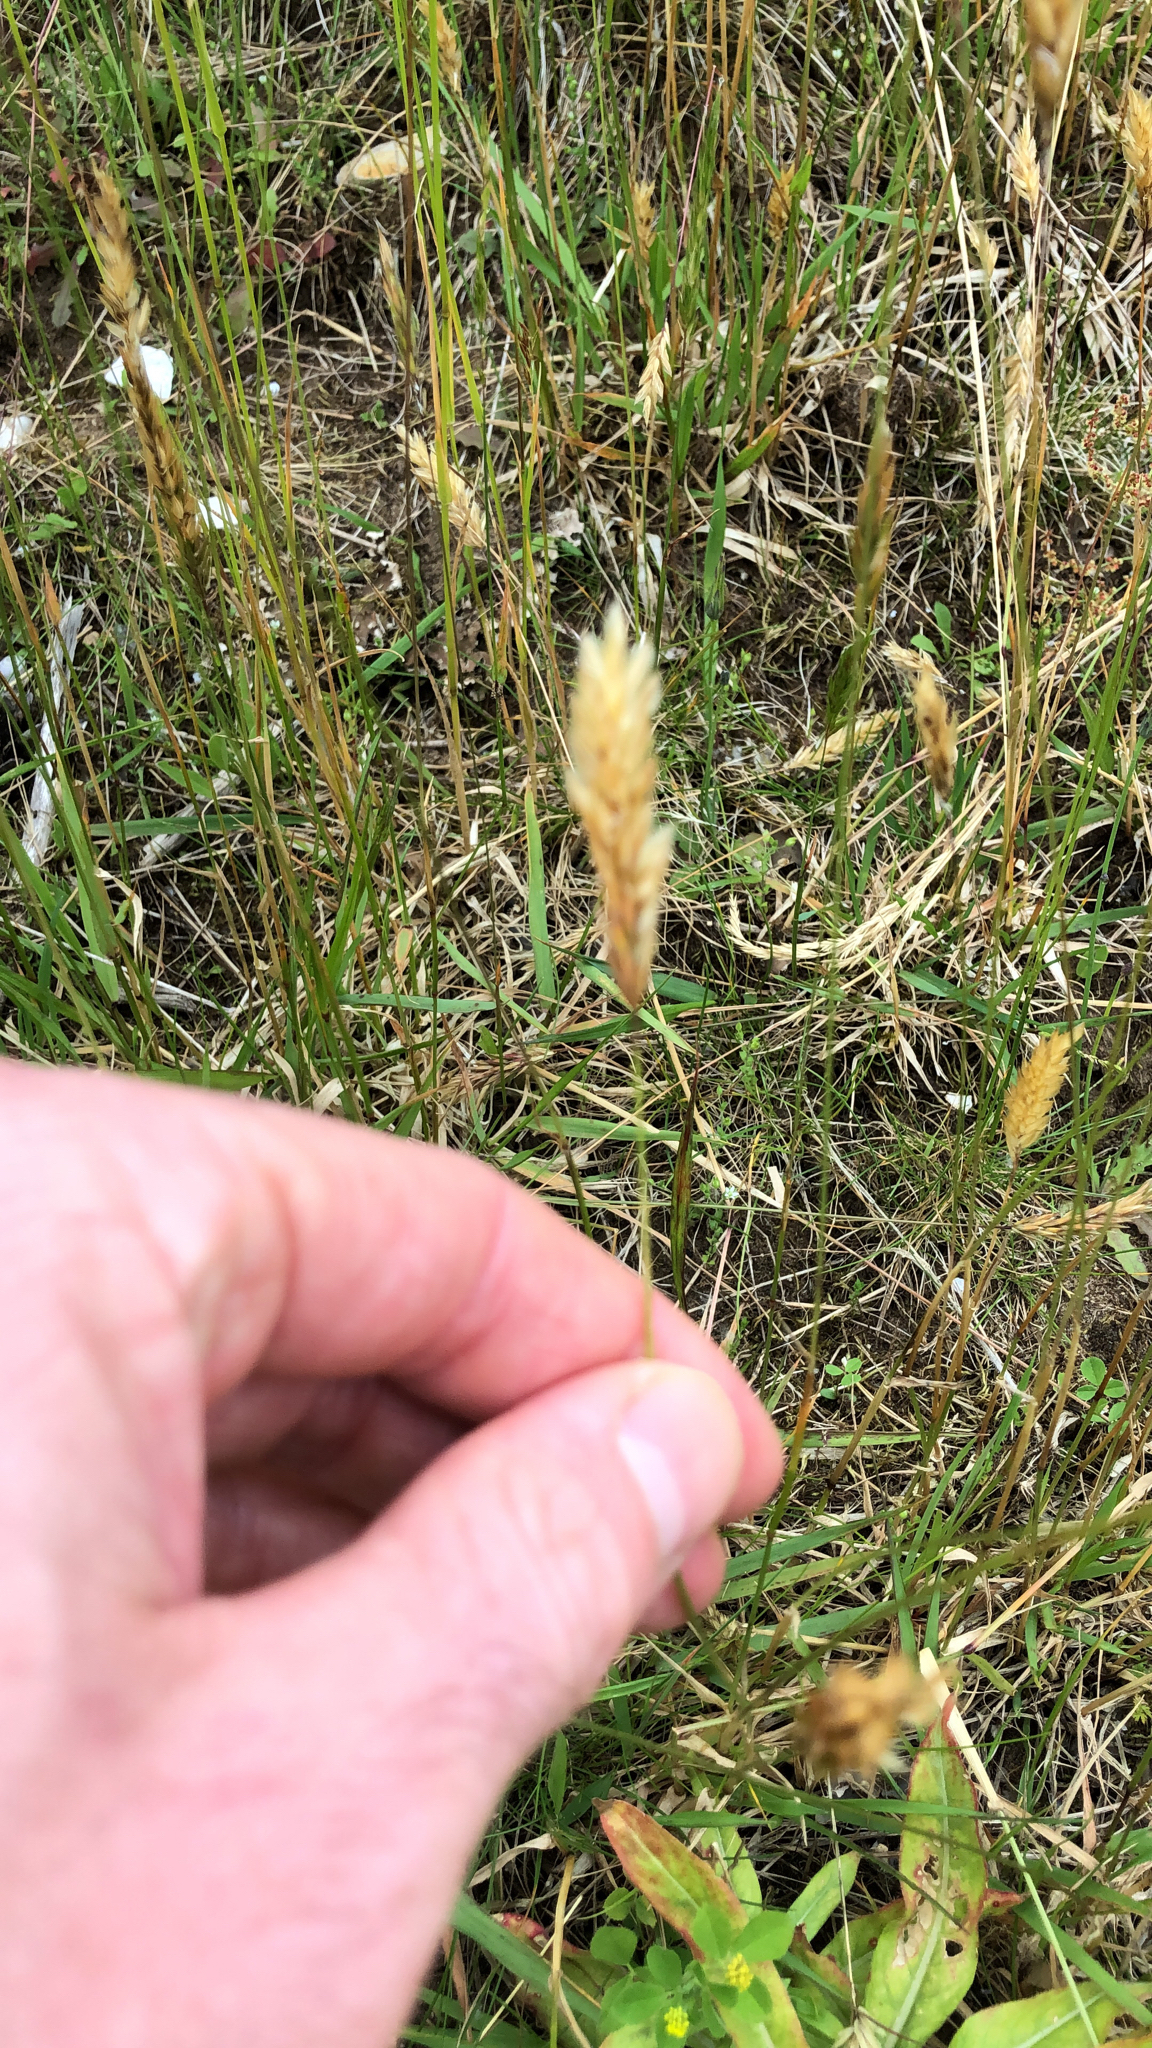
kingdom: Plantae
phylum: Tracheophyta
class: Liliopsida
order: Poales
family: Poaceae
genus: Anthoxanthum
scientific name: Anthoxanthum odoratum
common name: Sweet vernalgrass
